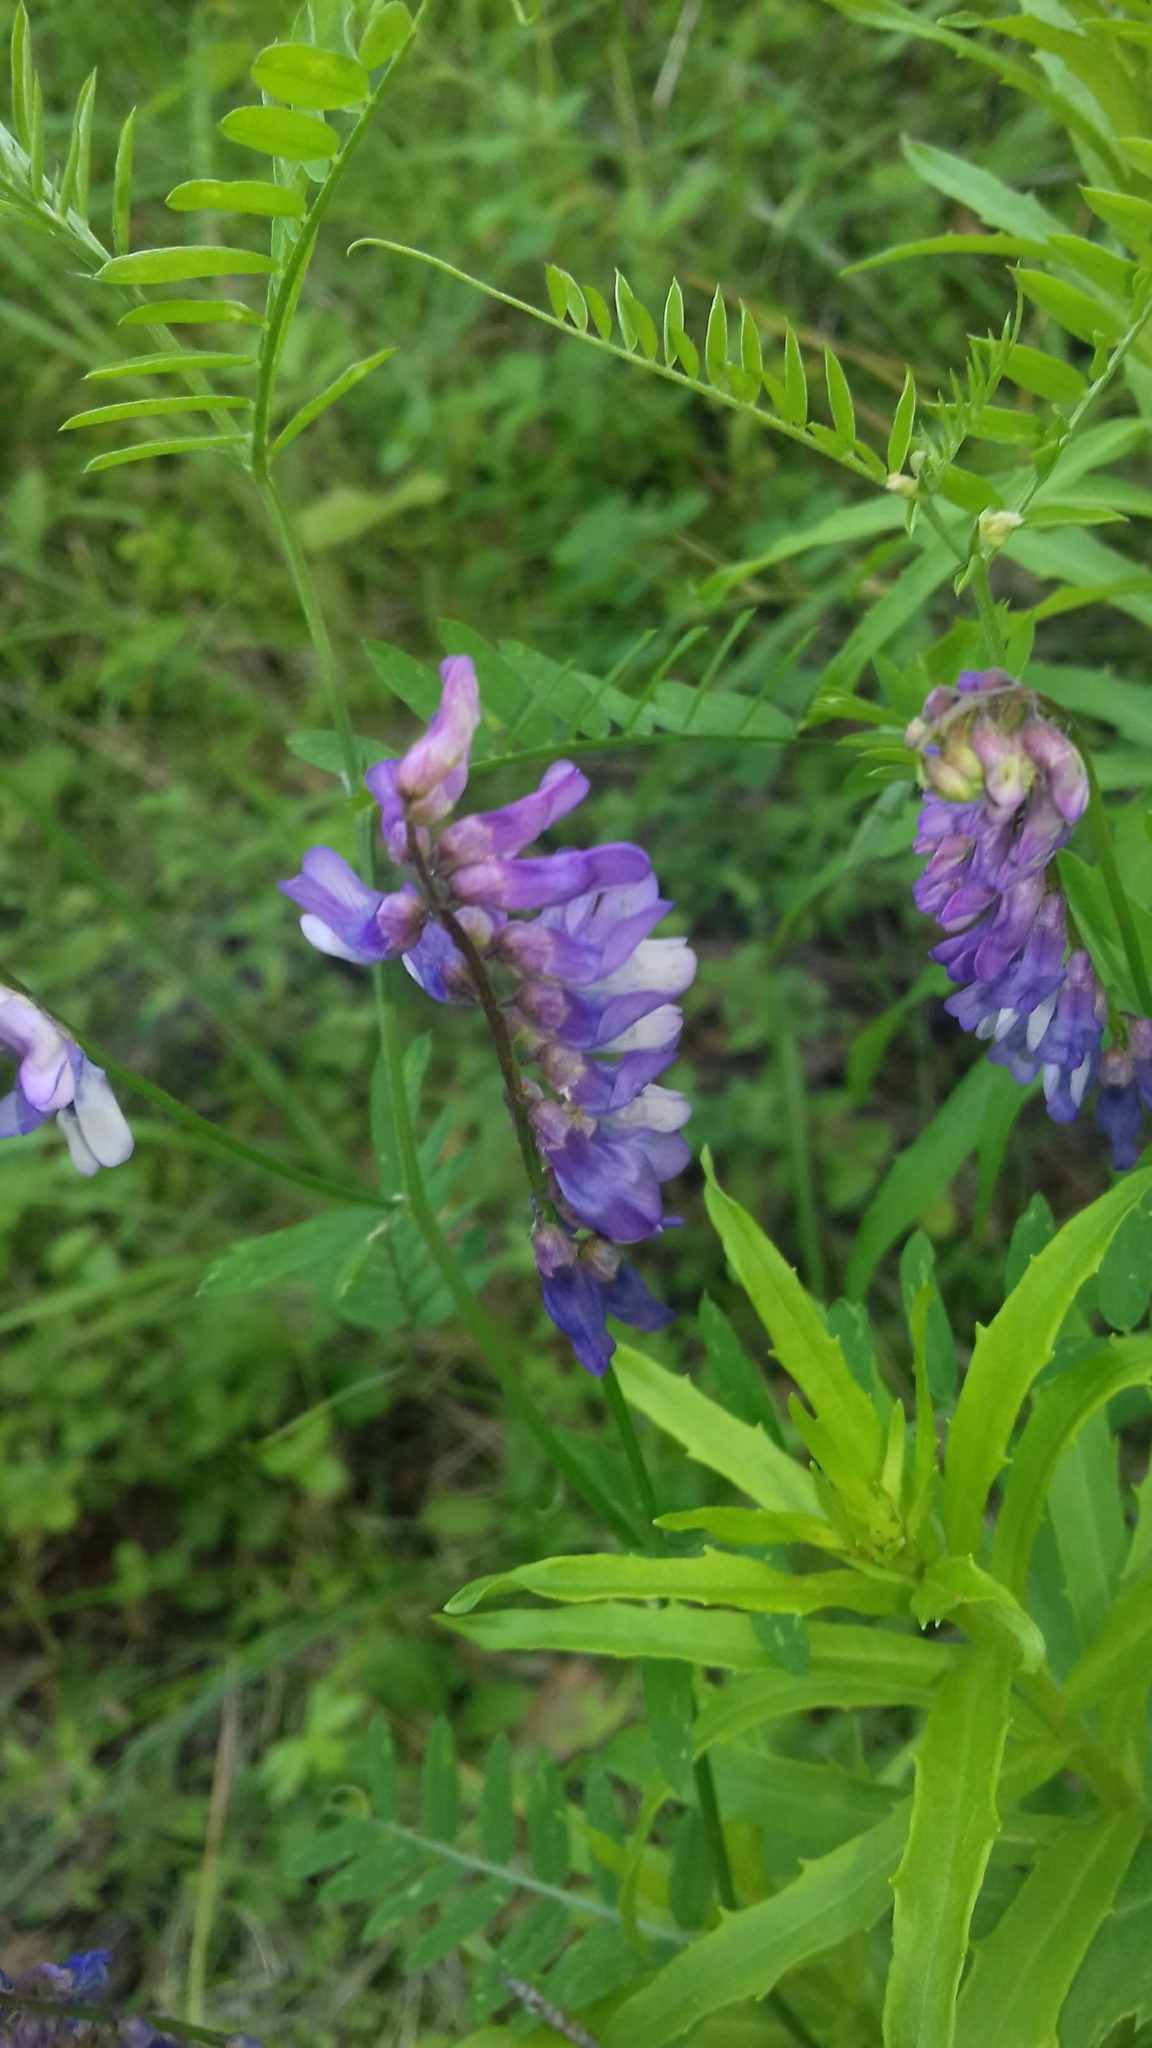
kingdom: Plantae
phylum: Tracheophyta
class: Magnoliopsida
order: Fabales
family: Fabaceae
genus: Vicia
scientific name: Vicia cracca
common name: Bird vetch
